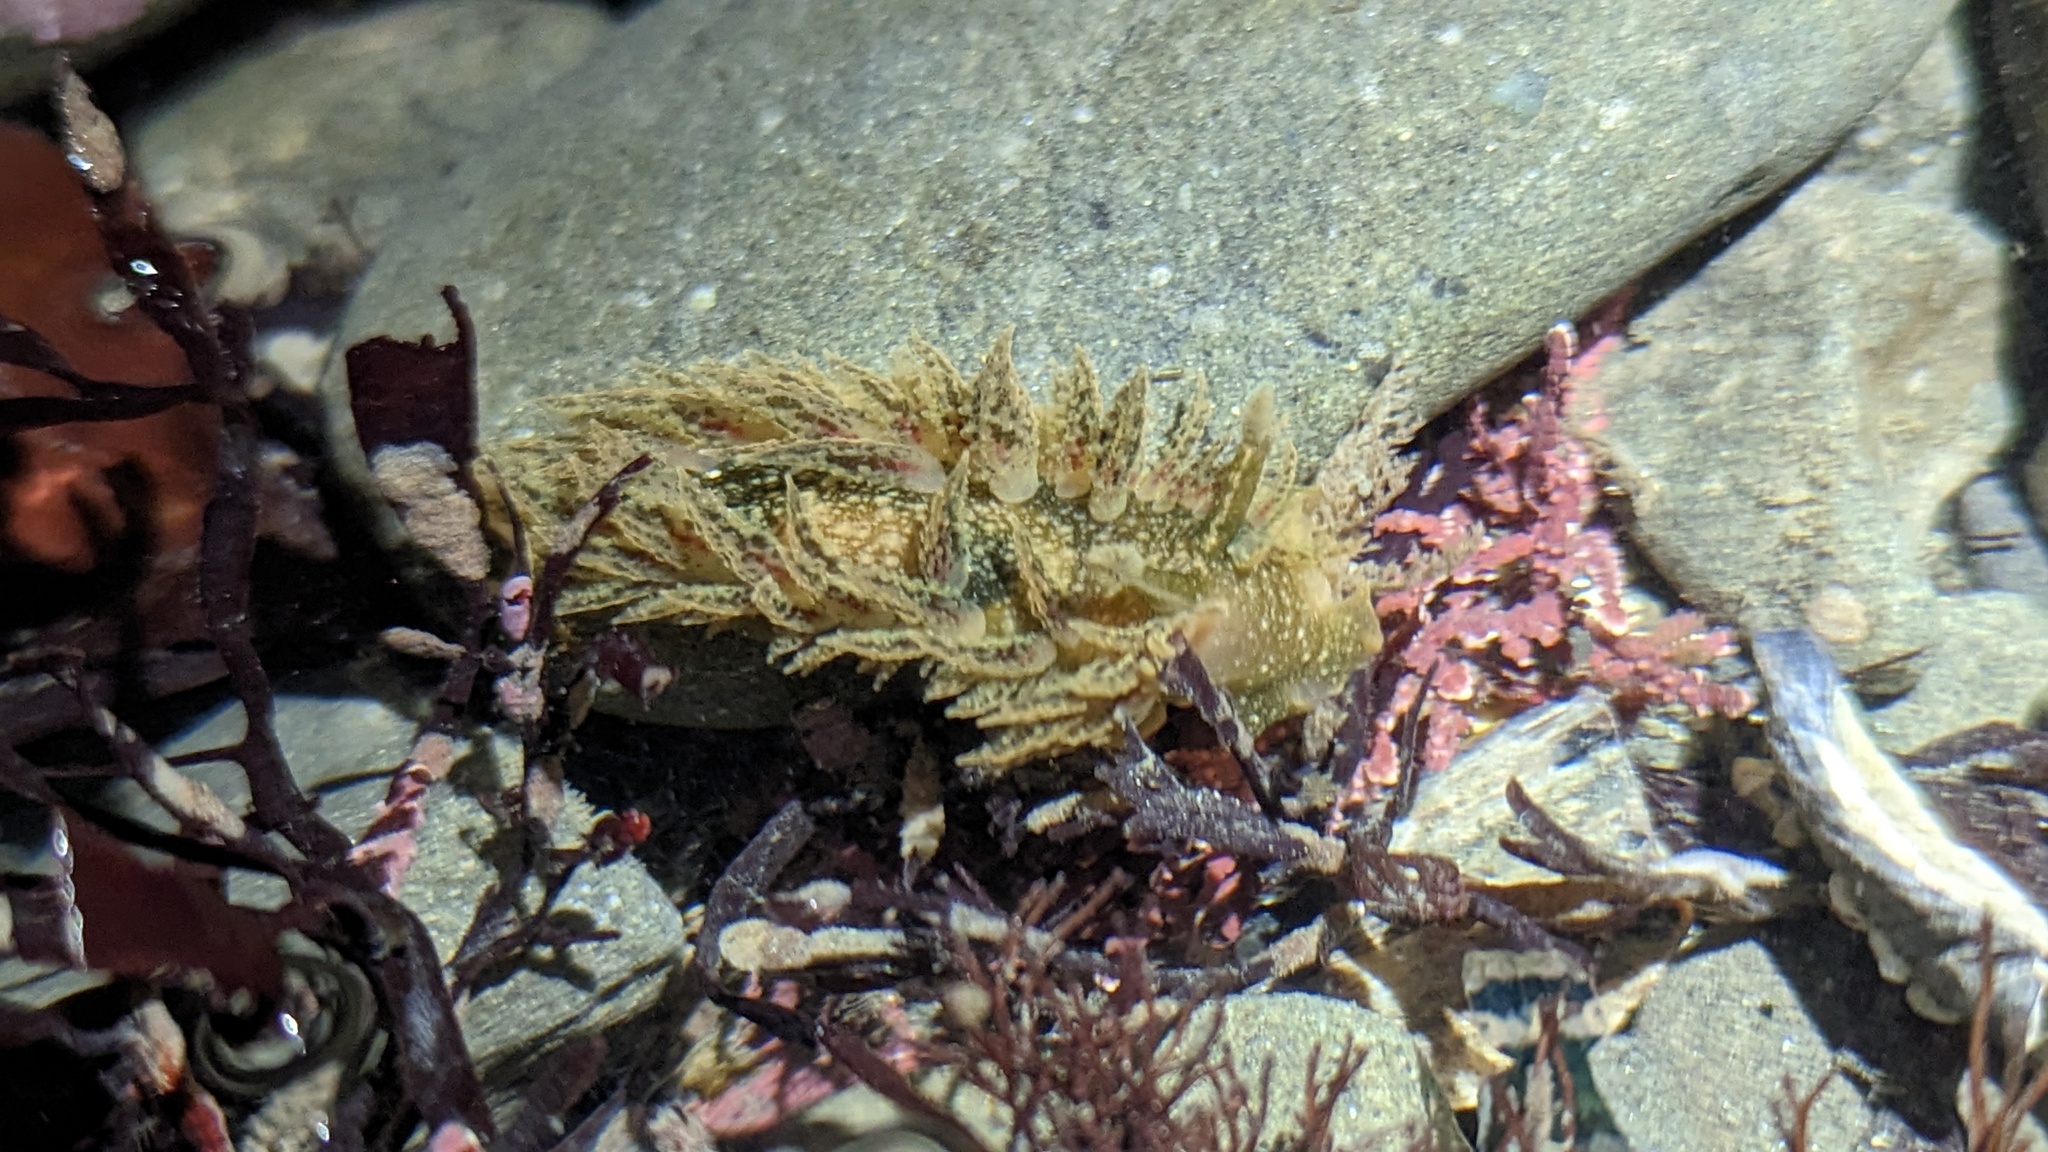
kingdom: Animalia
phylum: Mollusca
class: Gastropoda
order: Nudibranchia
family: Dironidae
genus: Dirona
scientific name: Dirona picta
